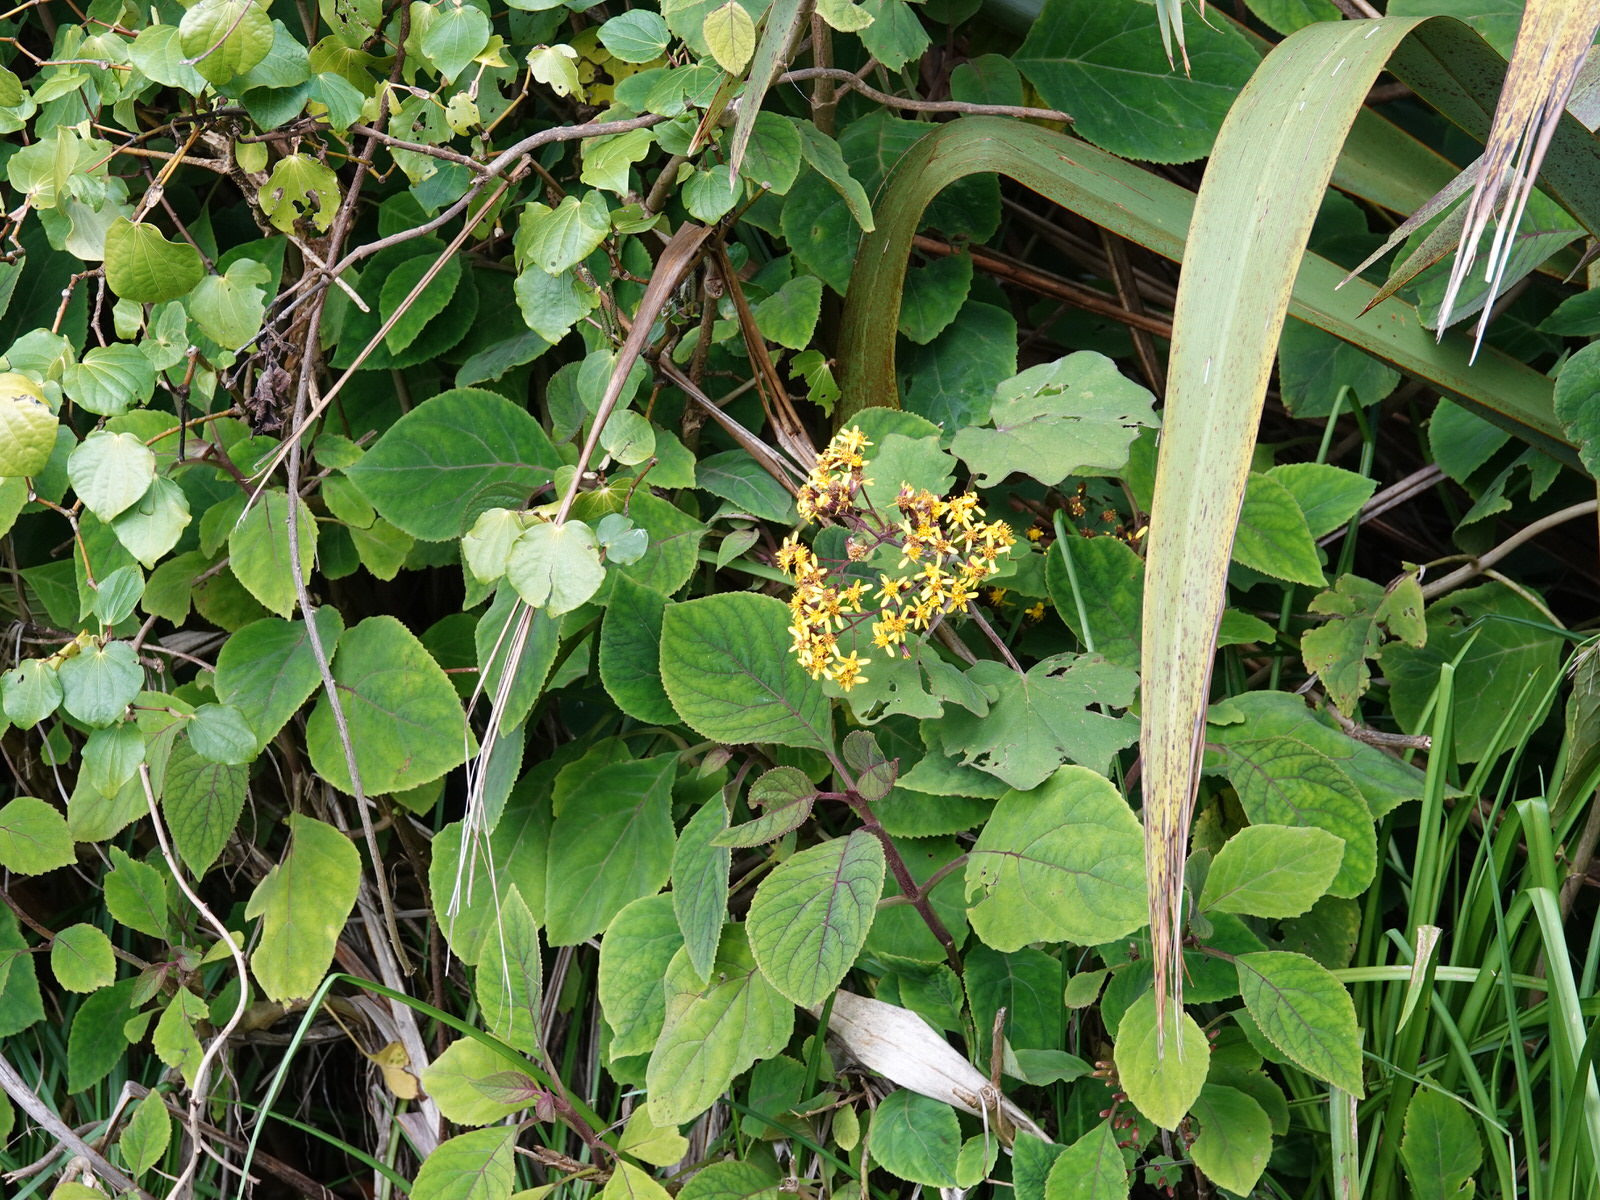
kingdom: Plantae
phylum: Tracheophyta
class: Magnoliopsida
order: Asterales
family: Asteraceae
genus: Roldana
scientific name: Roldana petasitis
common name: California-geranium
